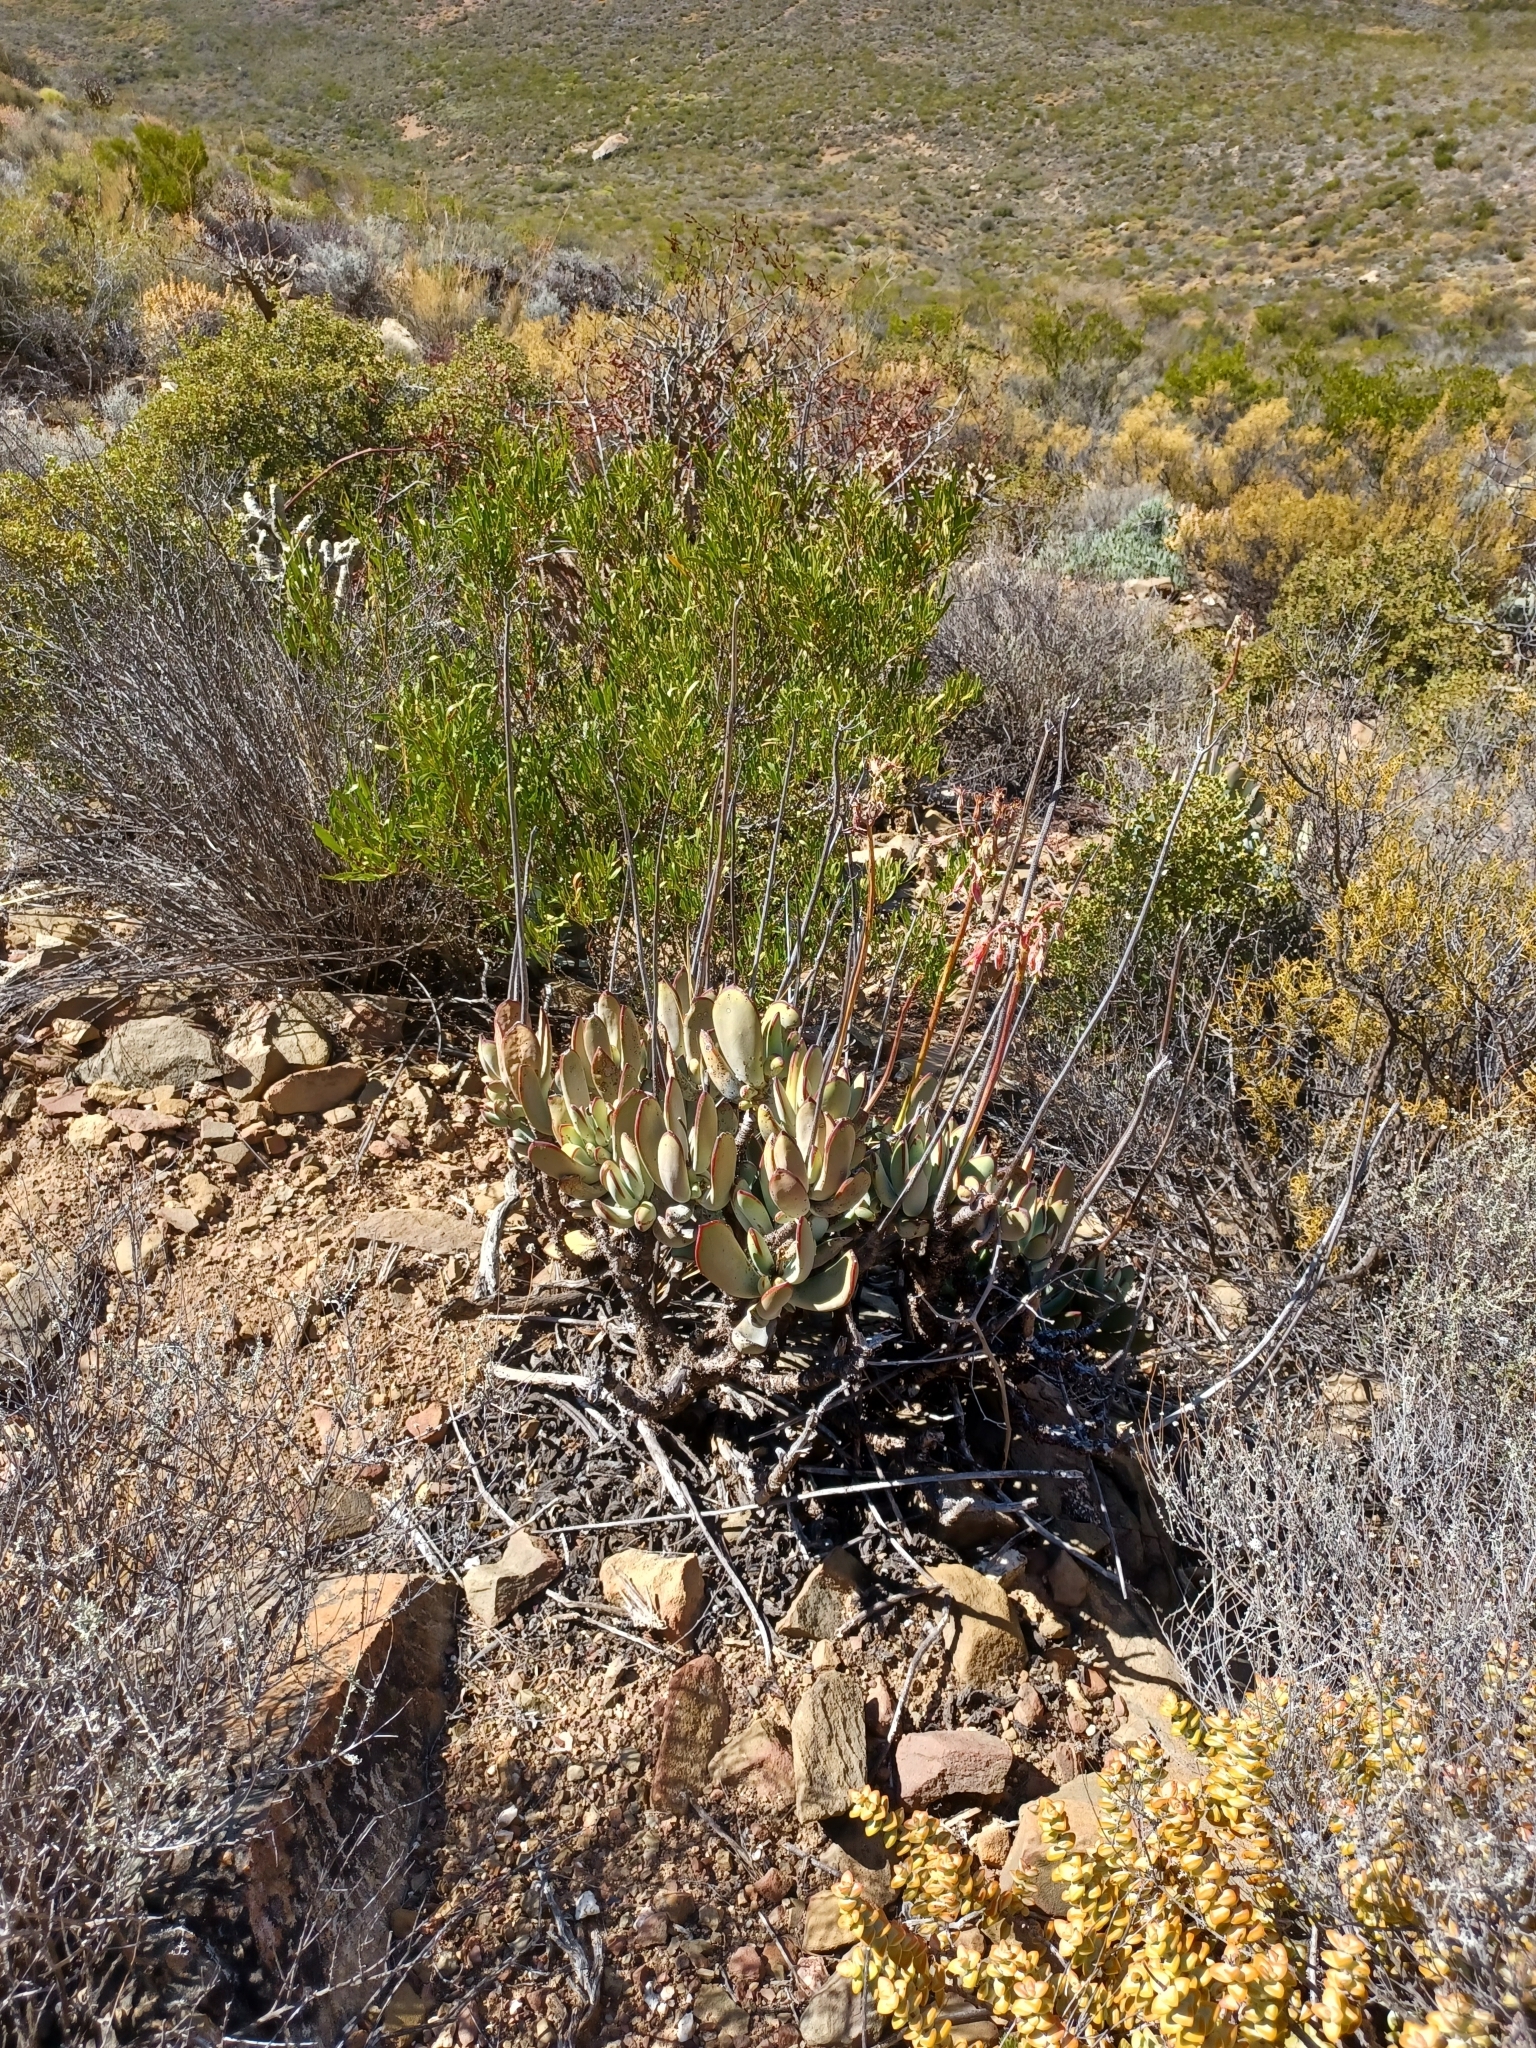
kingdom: Plantae
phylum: Tracheophyta
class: Magnoliopsida
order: Saxifragales
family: Crassulaceae
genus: Cotyledon
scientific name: Cotyledon orbiculata
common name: Pig's ear
